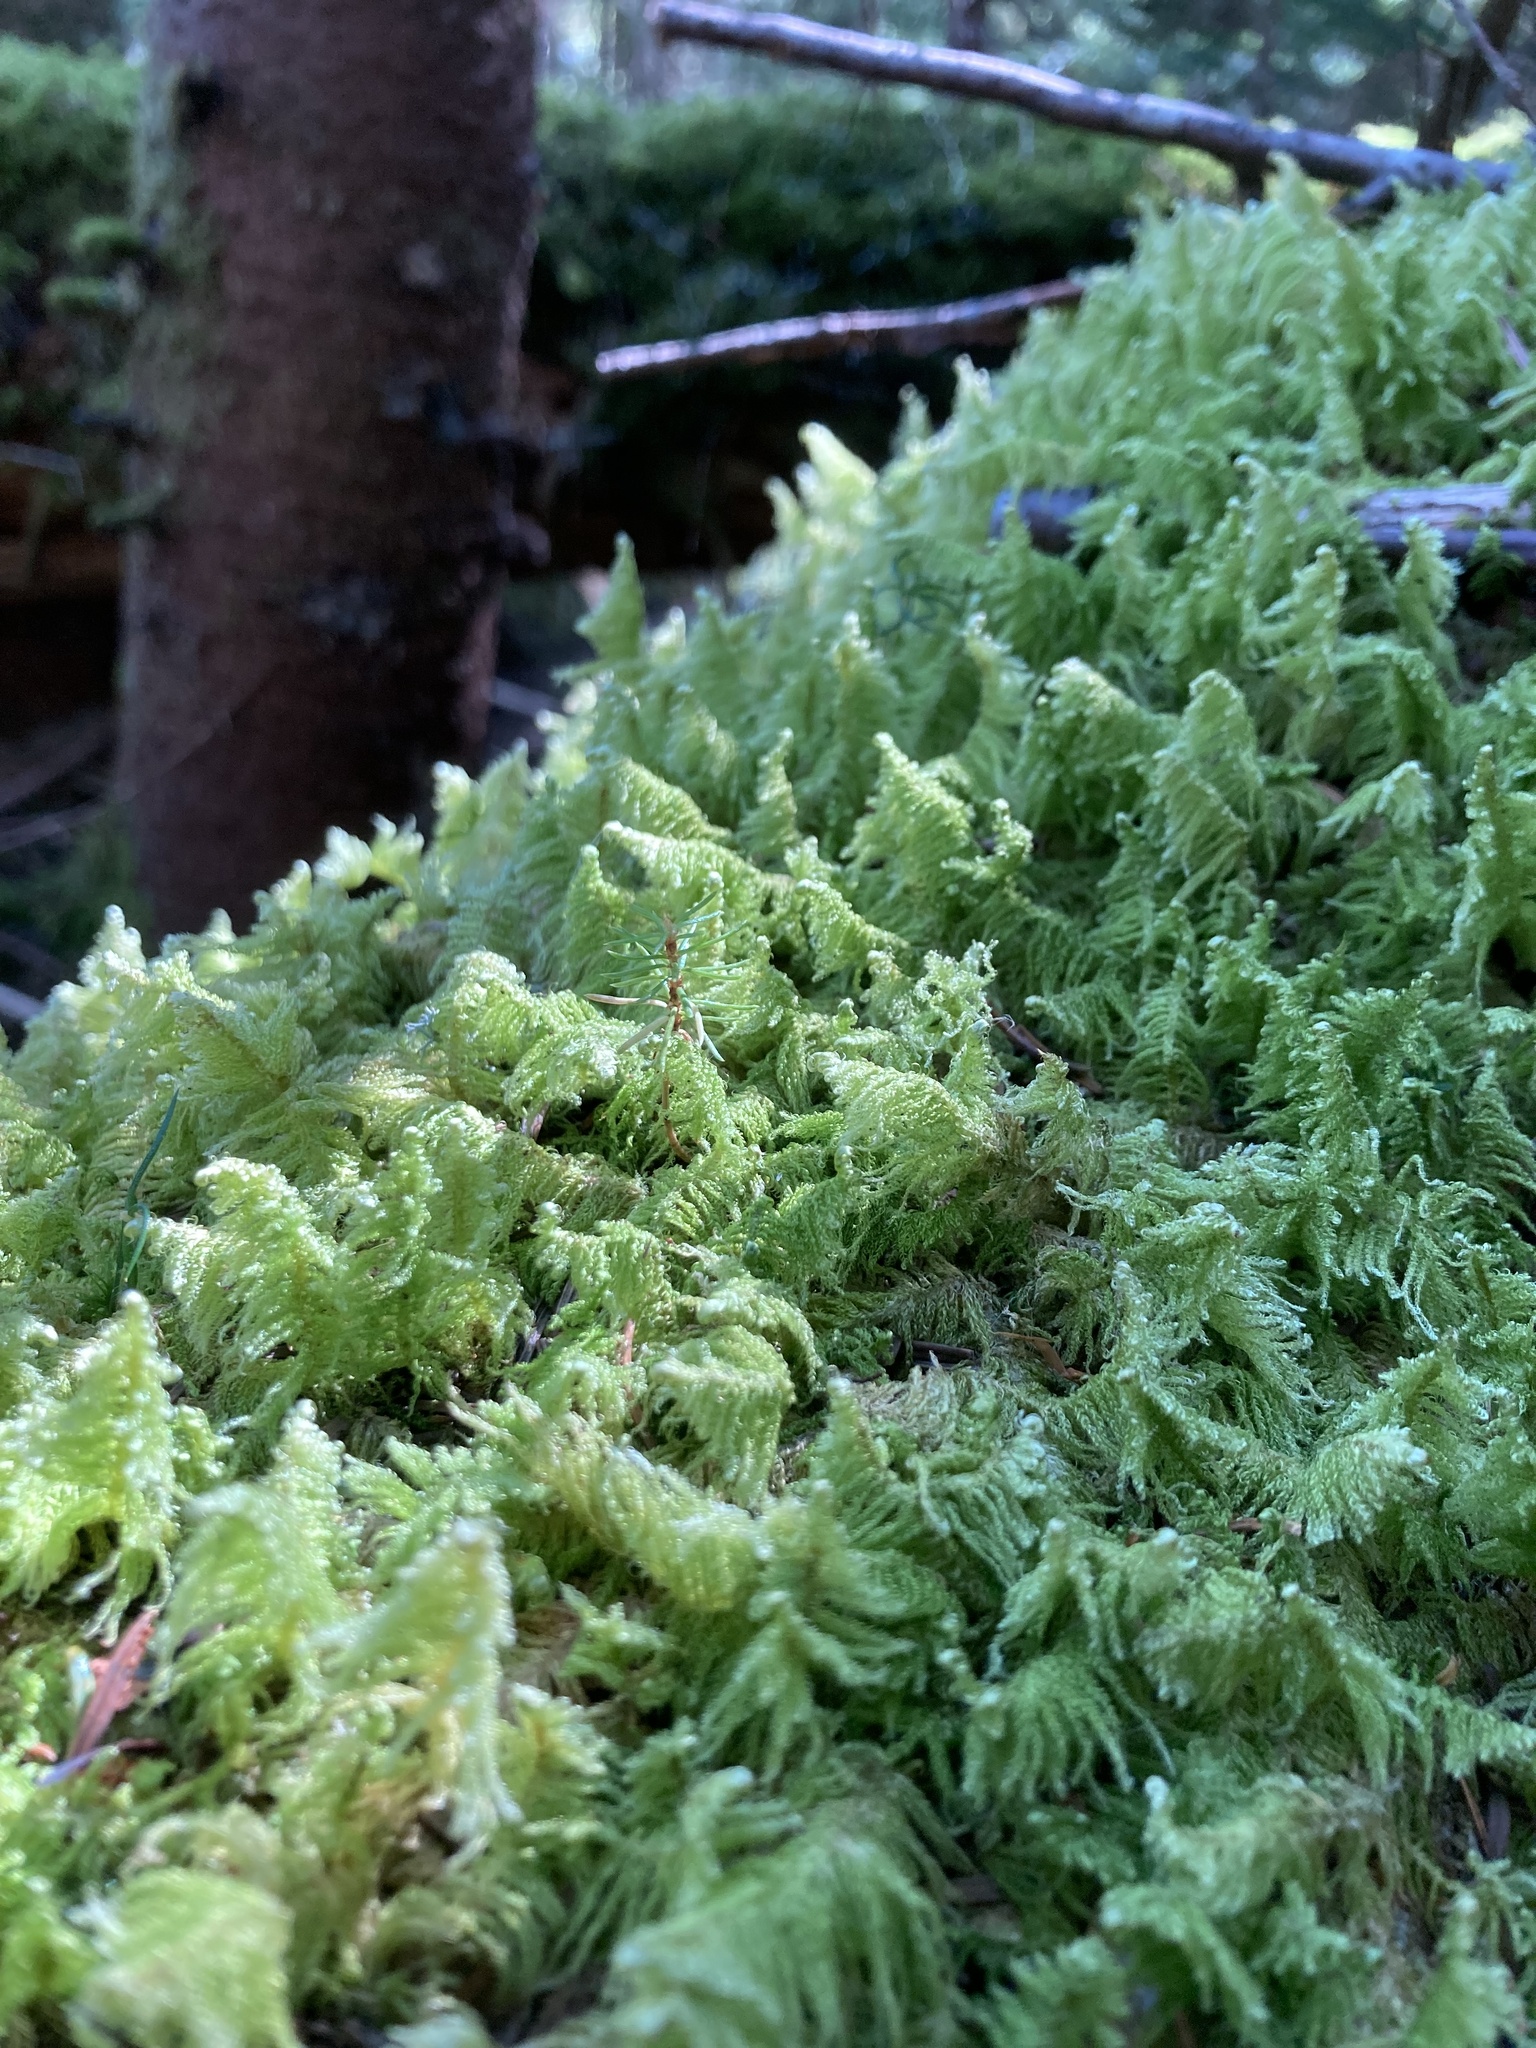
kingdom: Plantae
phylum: Bryophyta
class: Bryopsida
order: Hypnales
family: Pylaisiaceae
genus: Ptilium
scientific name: Ptilium crista-castrensis
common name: Knight's plume moss
